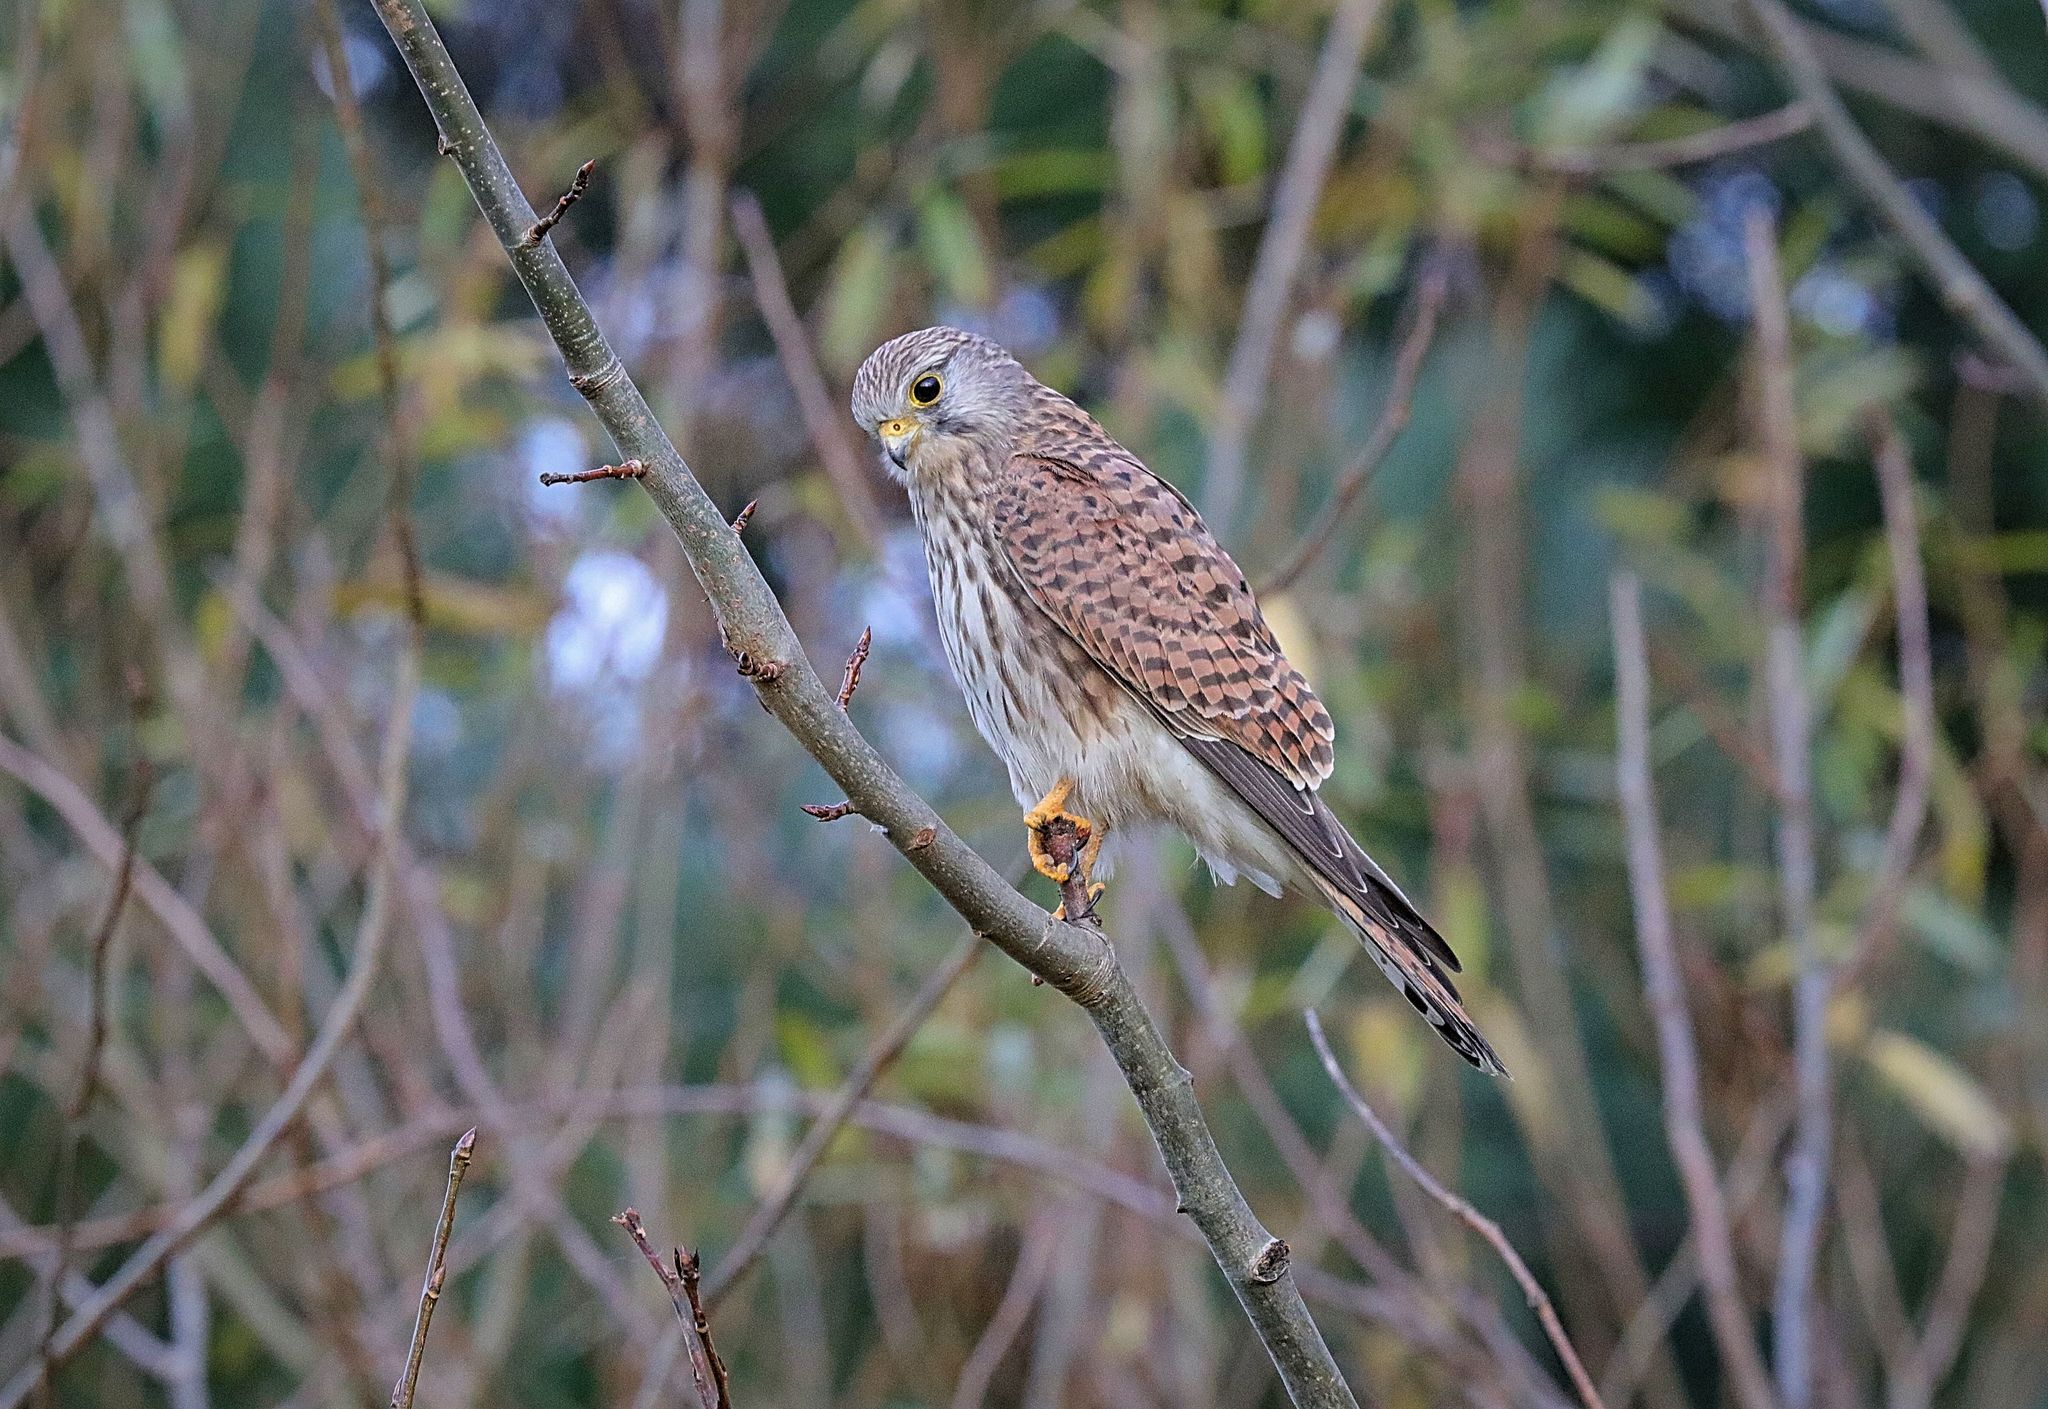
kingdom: Animalia
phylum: Chordata
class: Aves
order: Falconiformes
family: Falconidae
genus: Falco
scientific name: Falco tinnunculus
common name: Common kestrel
